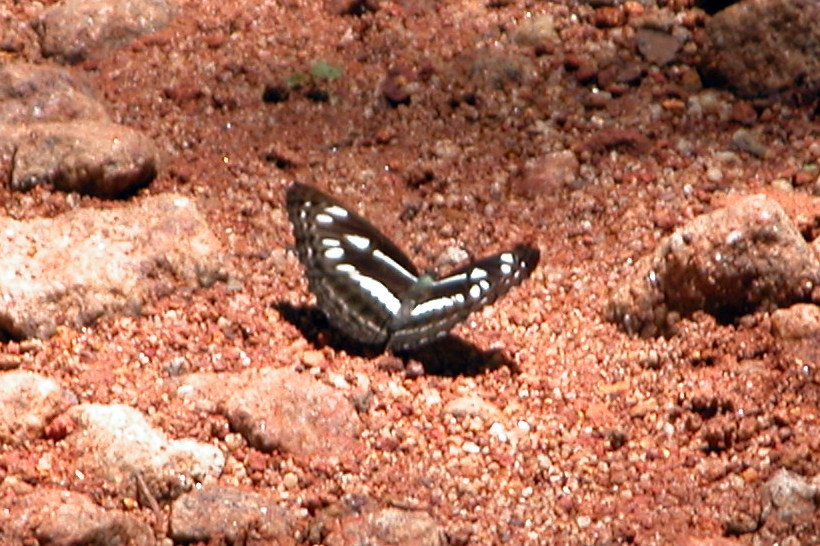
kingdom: Animalia
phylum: Arthropoda
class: Insecta
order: Lepidoptera
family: Nymphalidae
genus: Neptis
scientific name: Neptis jumbah
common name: Chestnut-streaked sailer
